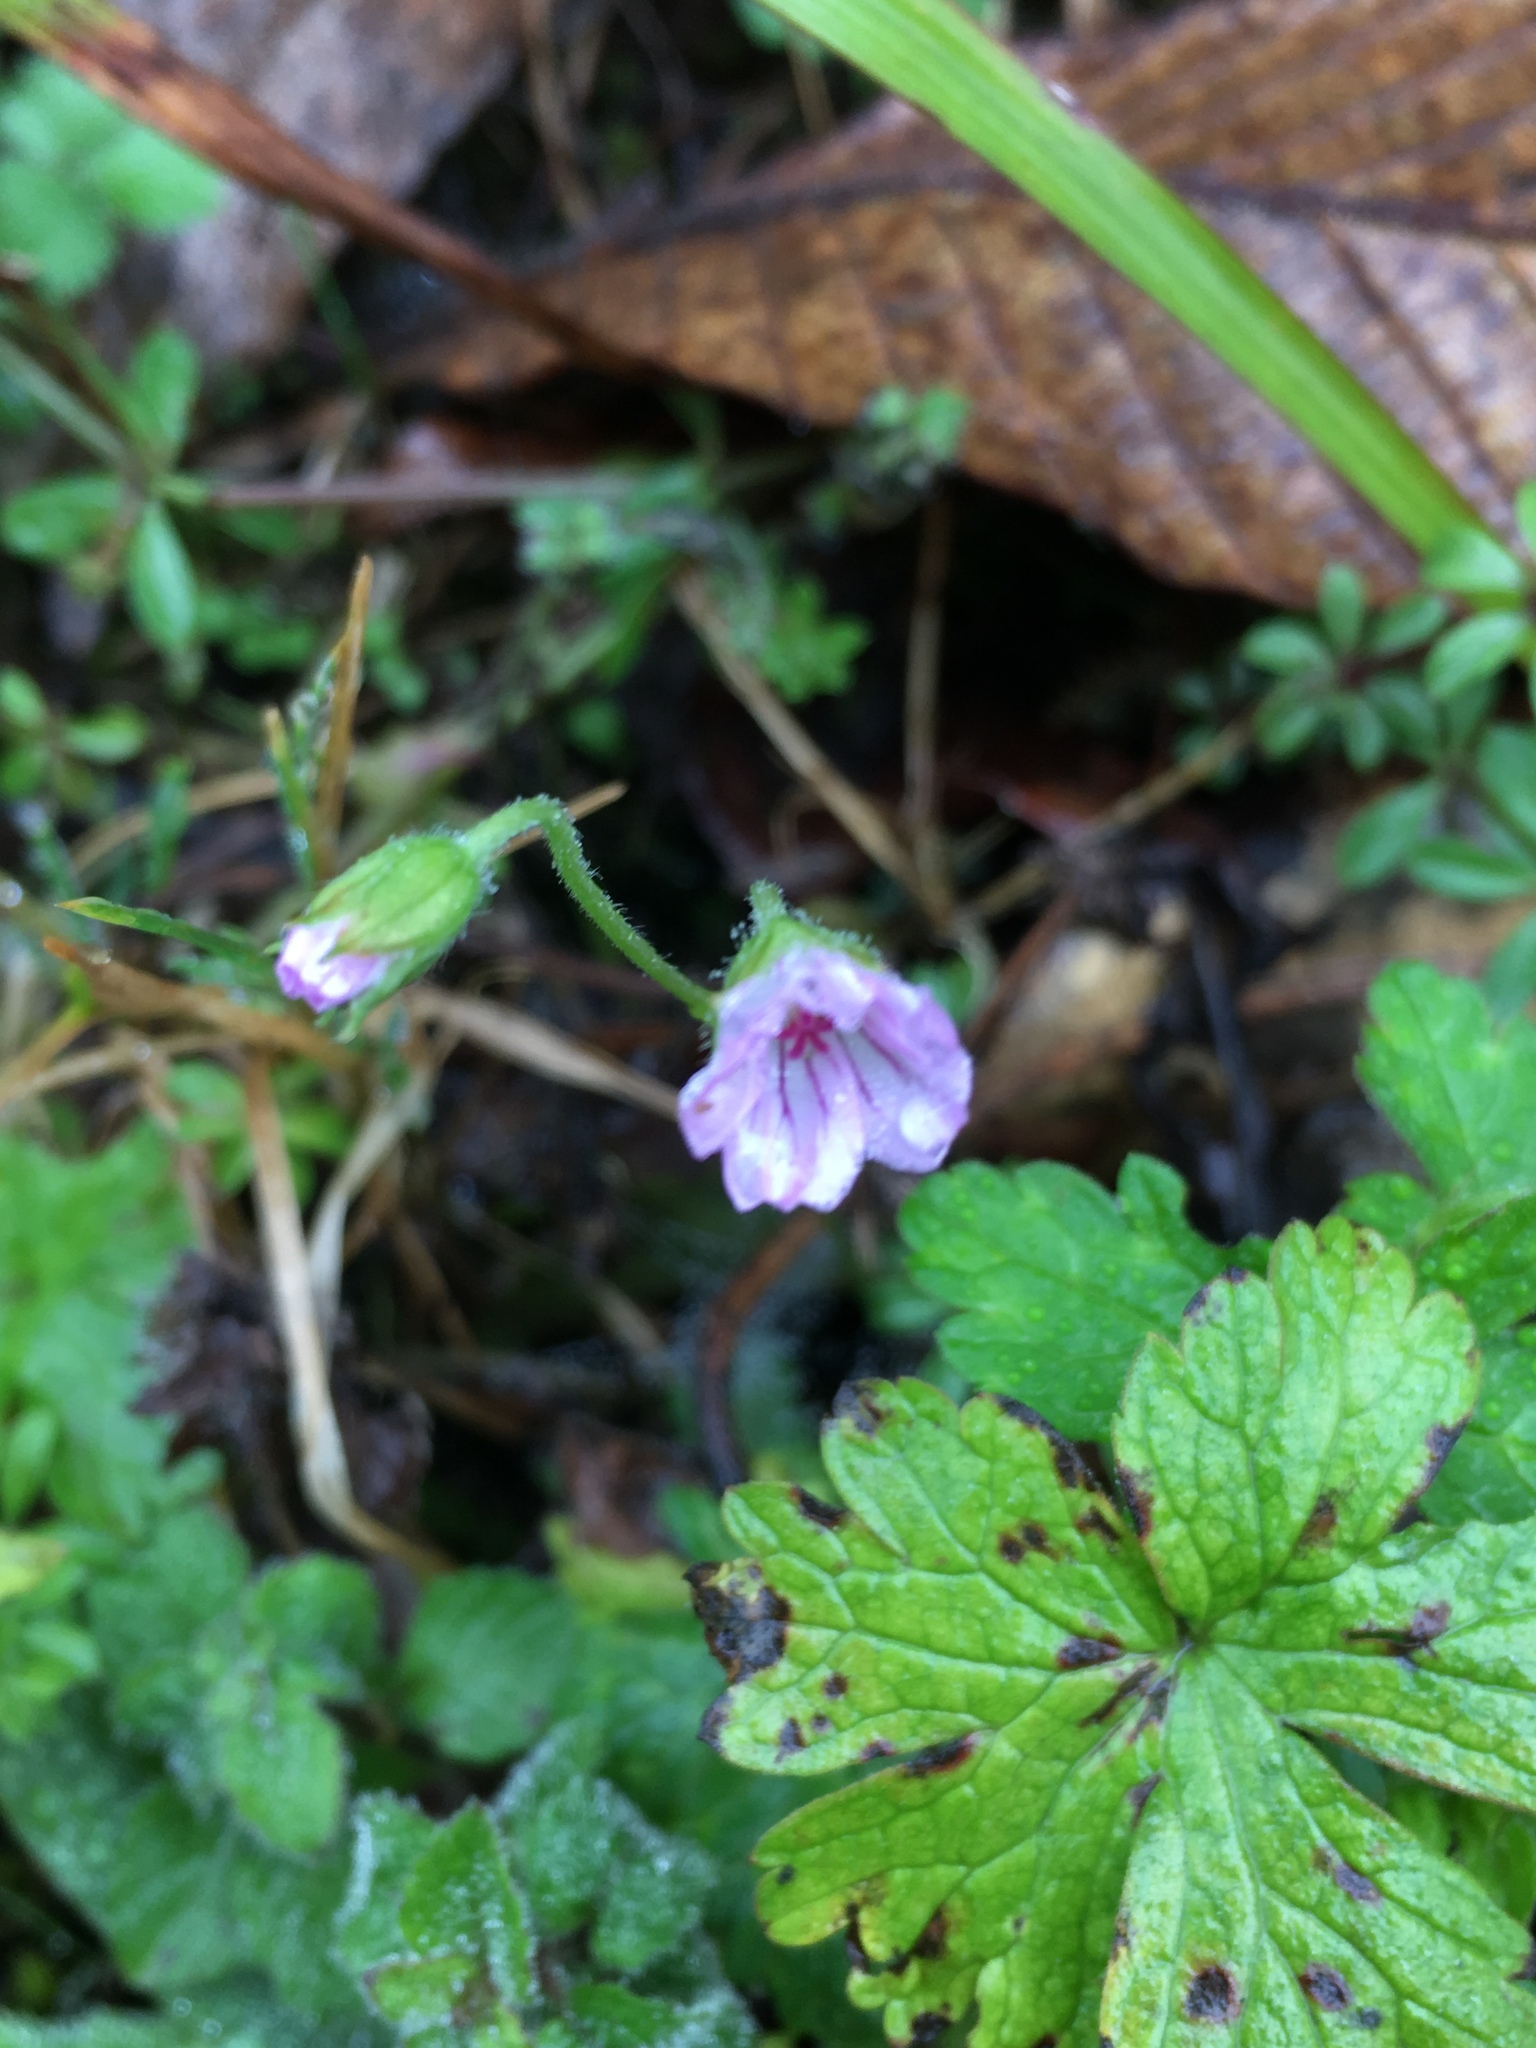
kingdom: Plantae
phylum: Tracheophyta
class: Magnoliopsida
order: Geraniales
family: Geraniaceae
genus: Geranium
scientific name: Geranium nepalense
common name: Nepalese crane's-bill
